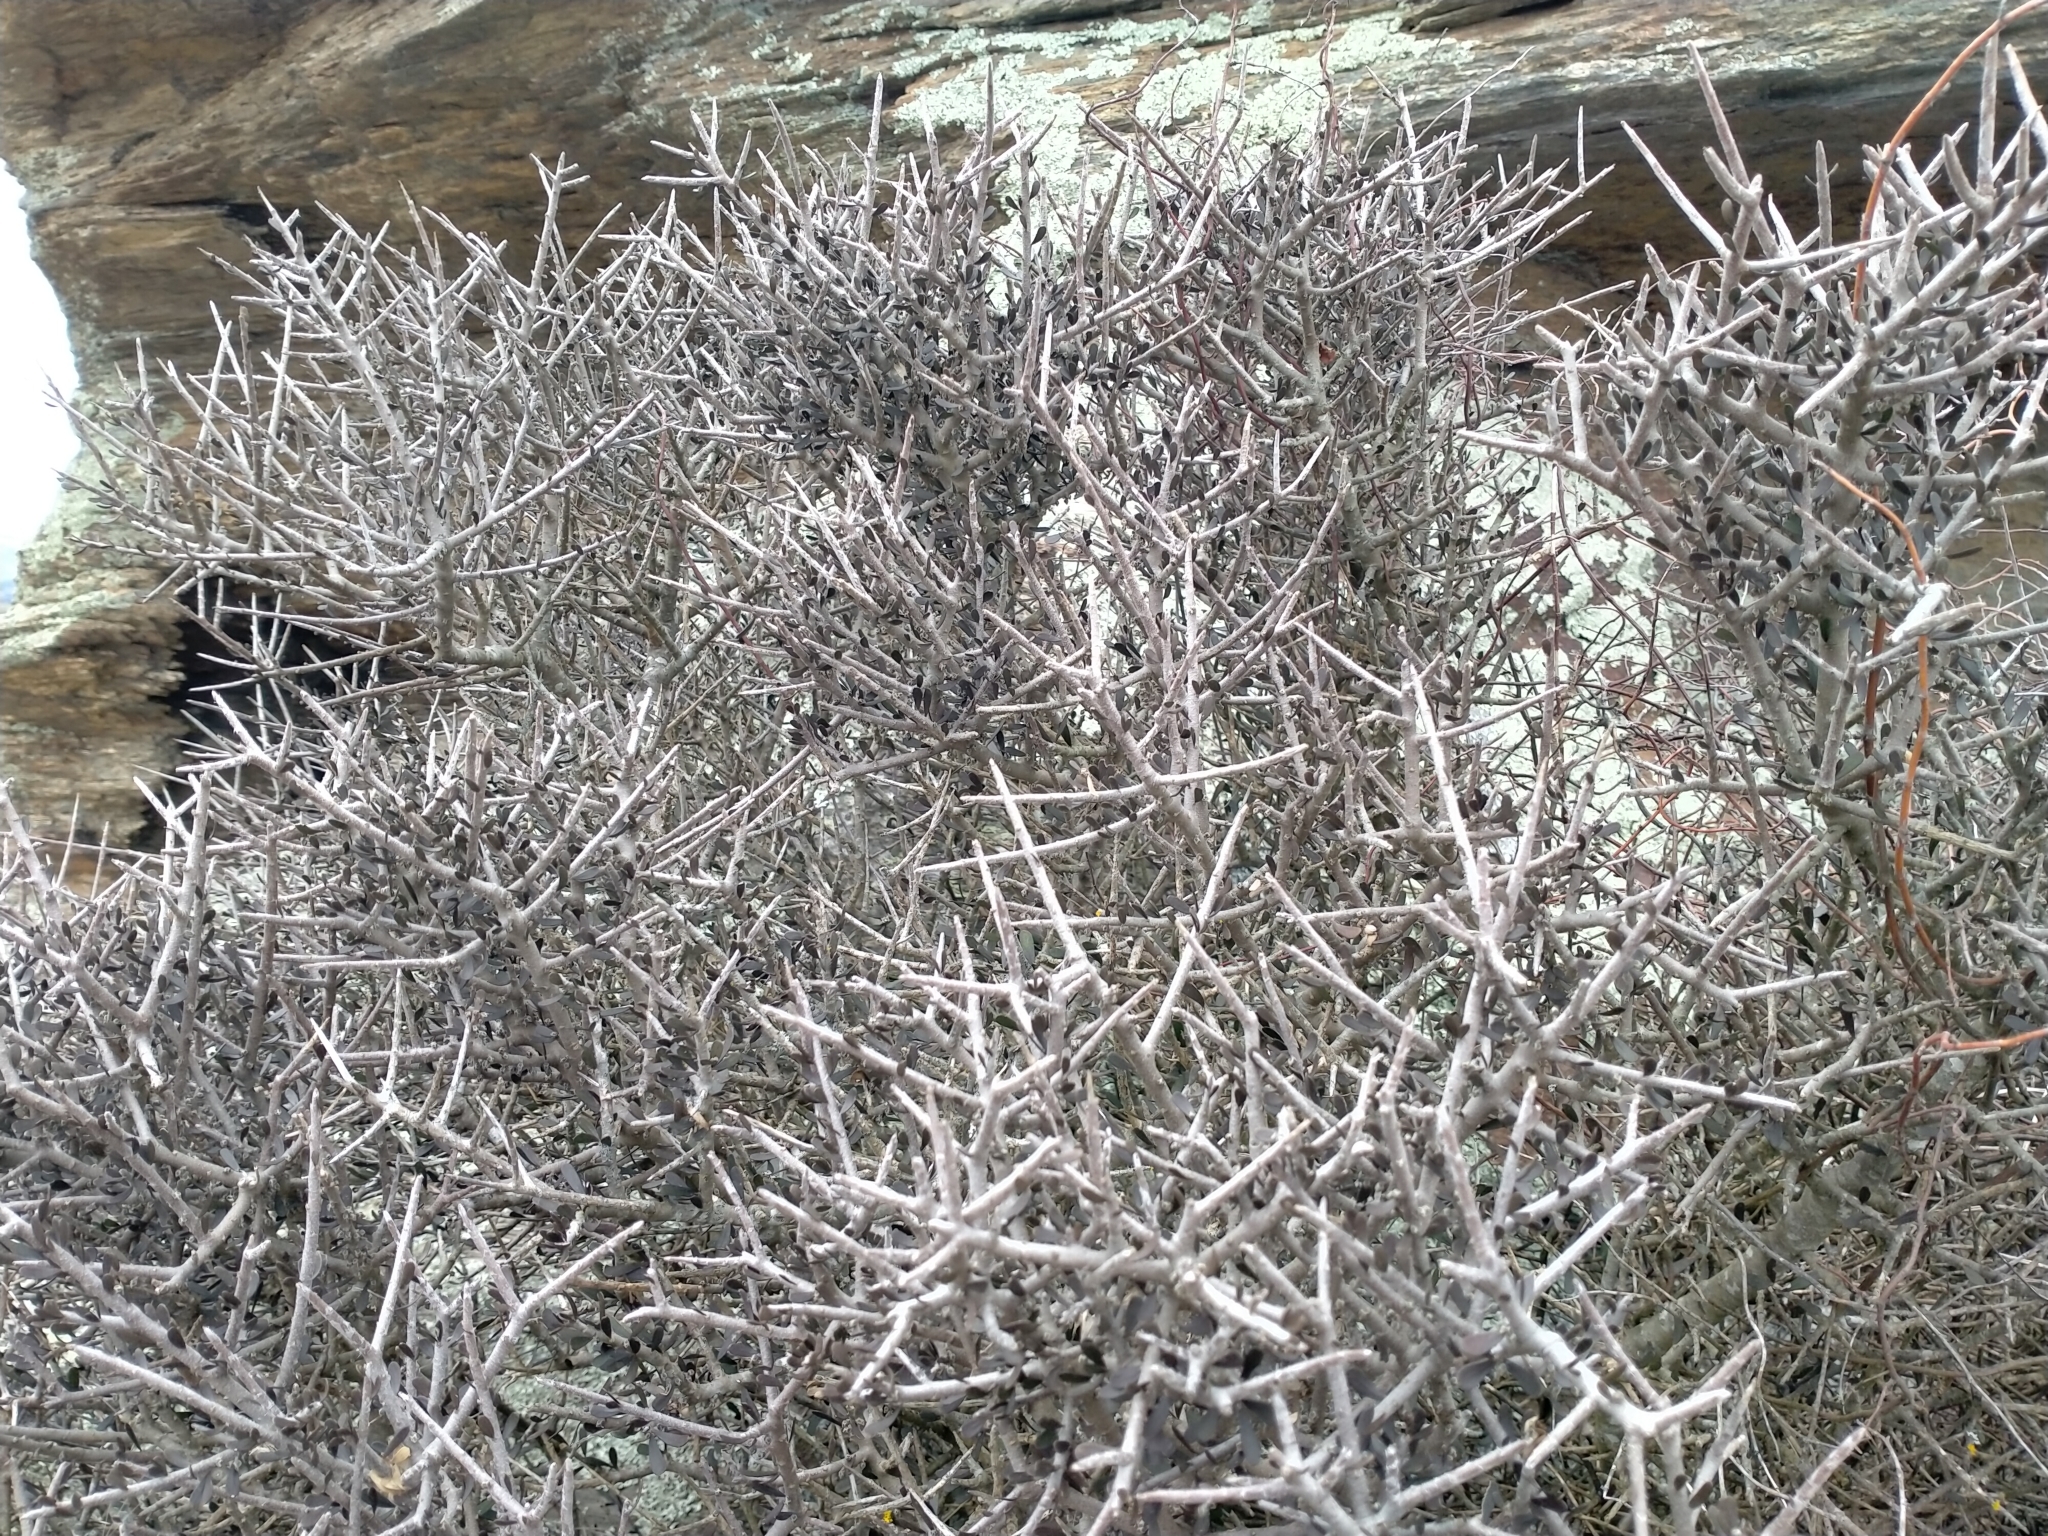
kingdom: Plantae
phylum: Tracheophyta
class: Magnoliopsida
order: Malpighiales
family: Violaceae
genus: Melicytus
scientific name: Melicytus alpinus
